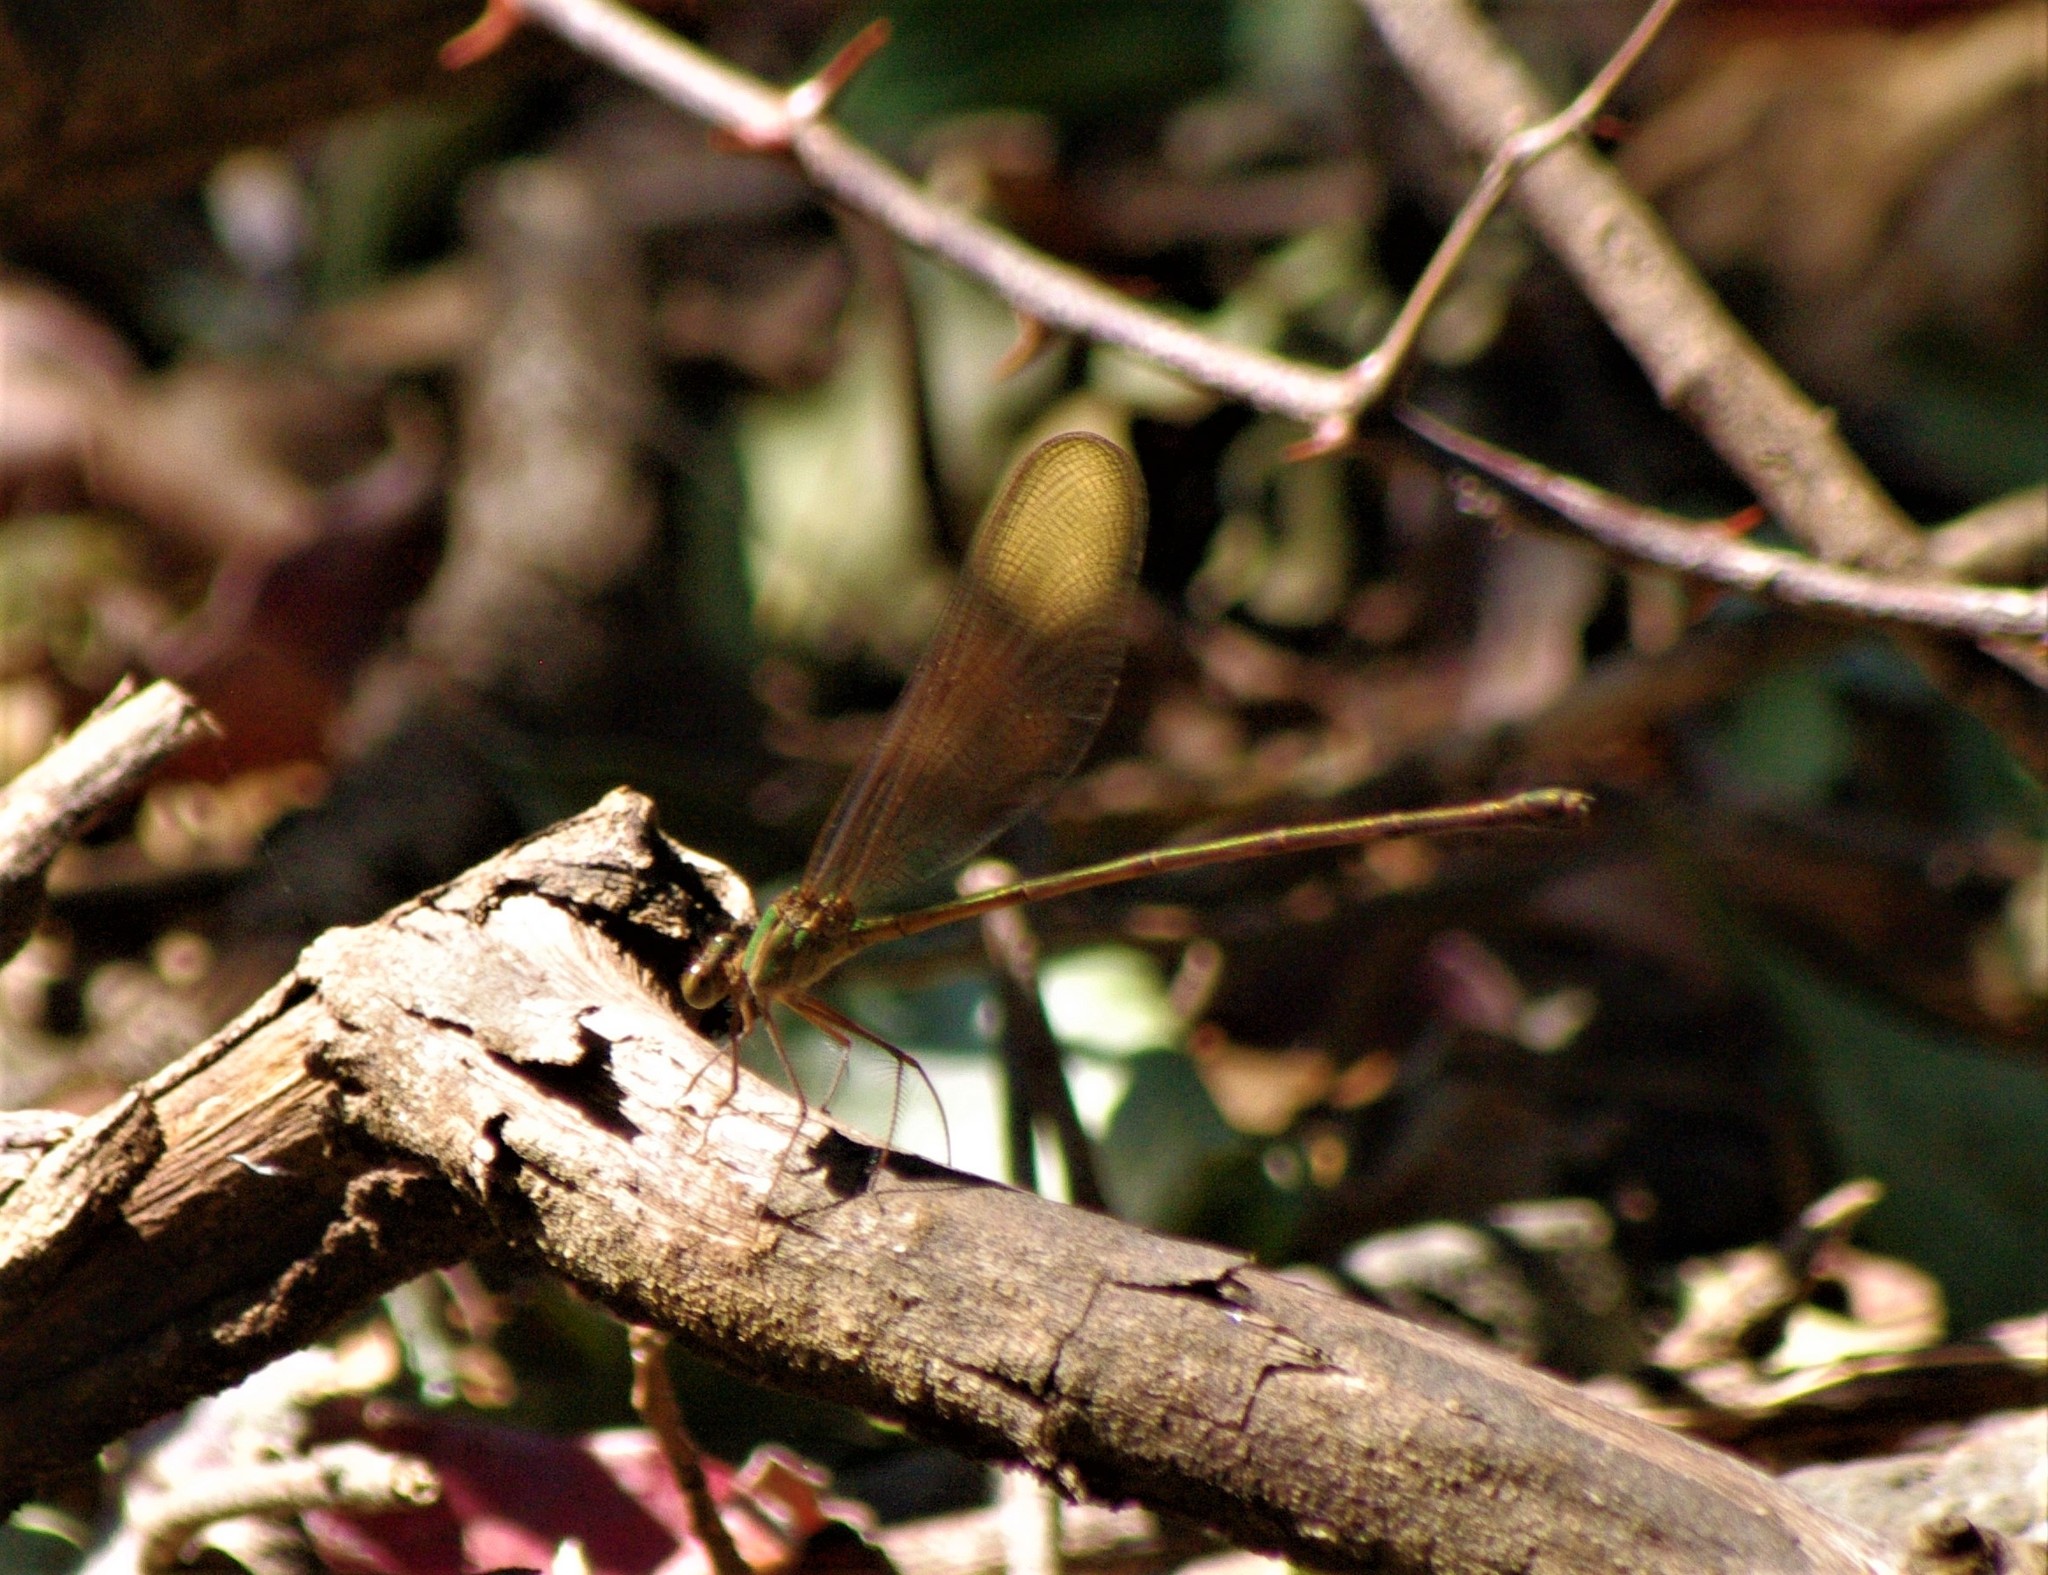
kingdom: Animalia
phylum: Arthropoda
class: Insecta
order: Odonata
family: Calopterygidae
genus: Phaon
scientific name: Phaon iridipennis
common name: Glistening demoiselle
